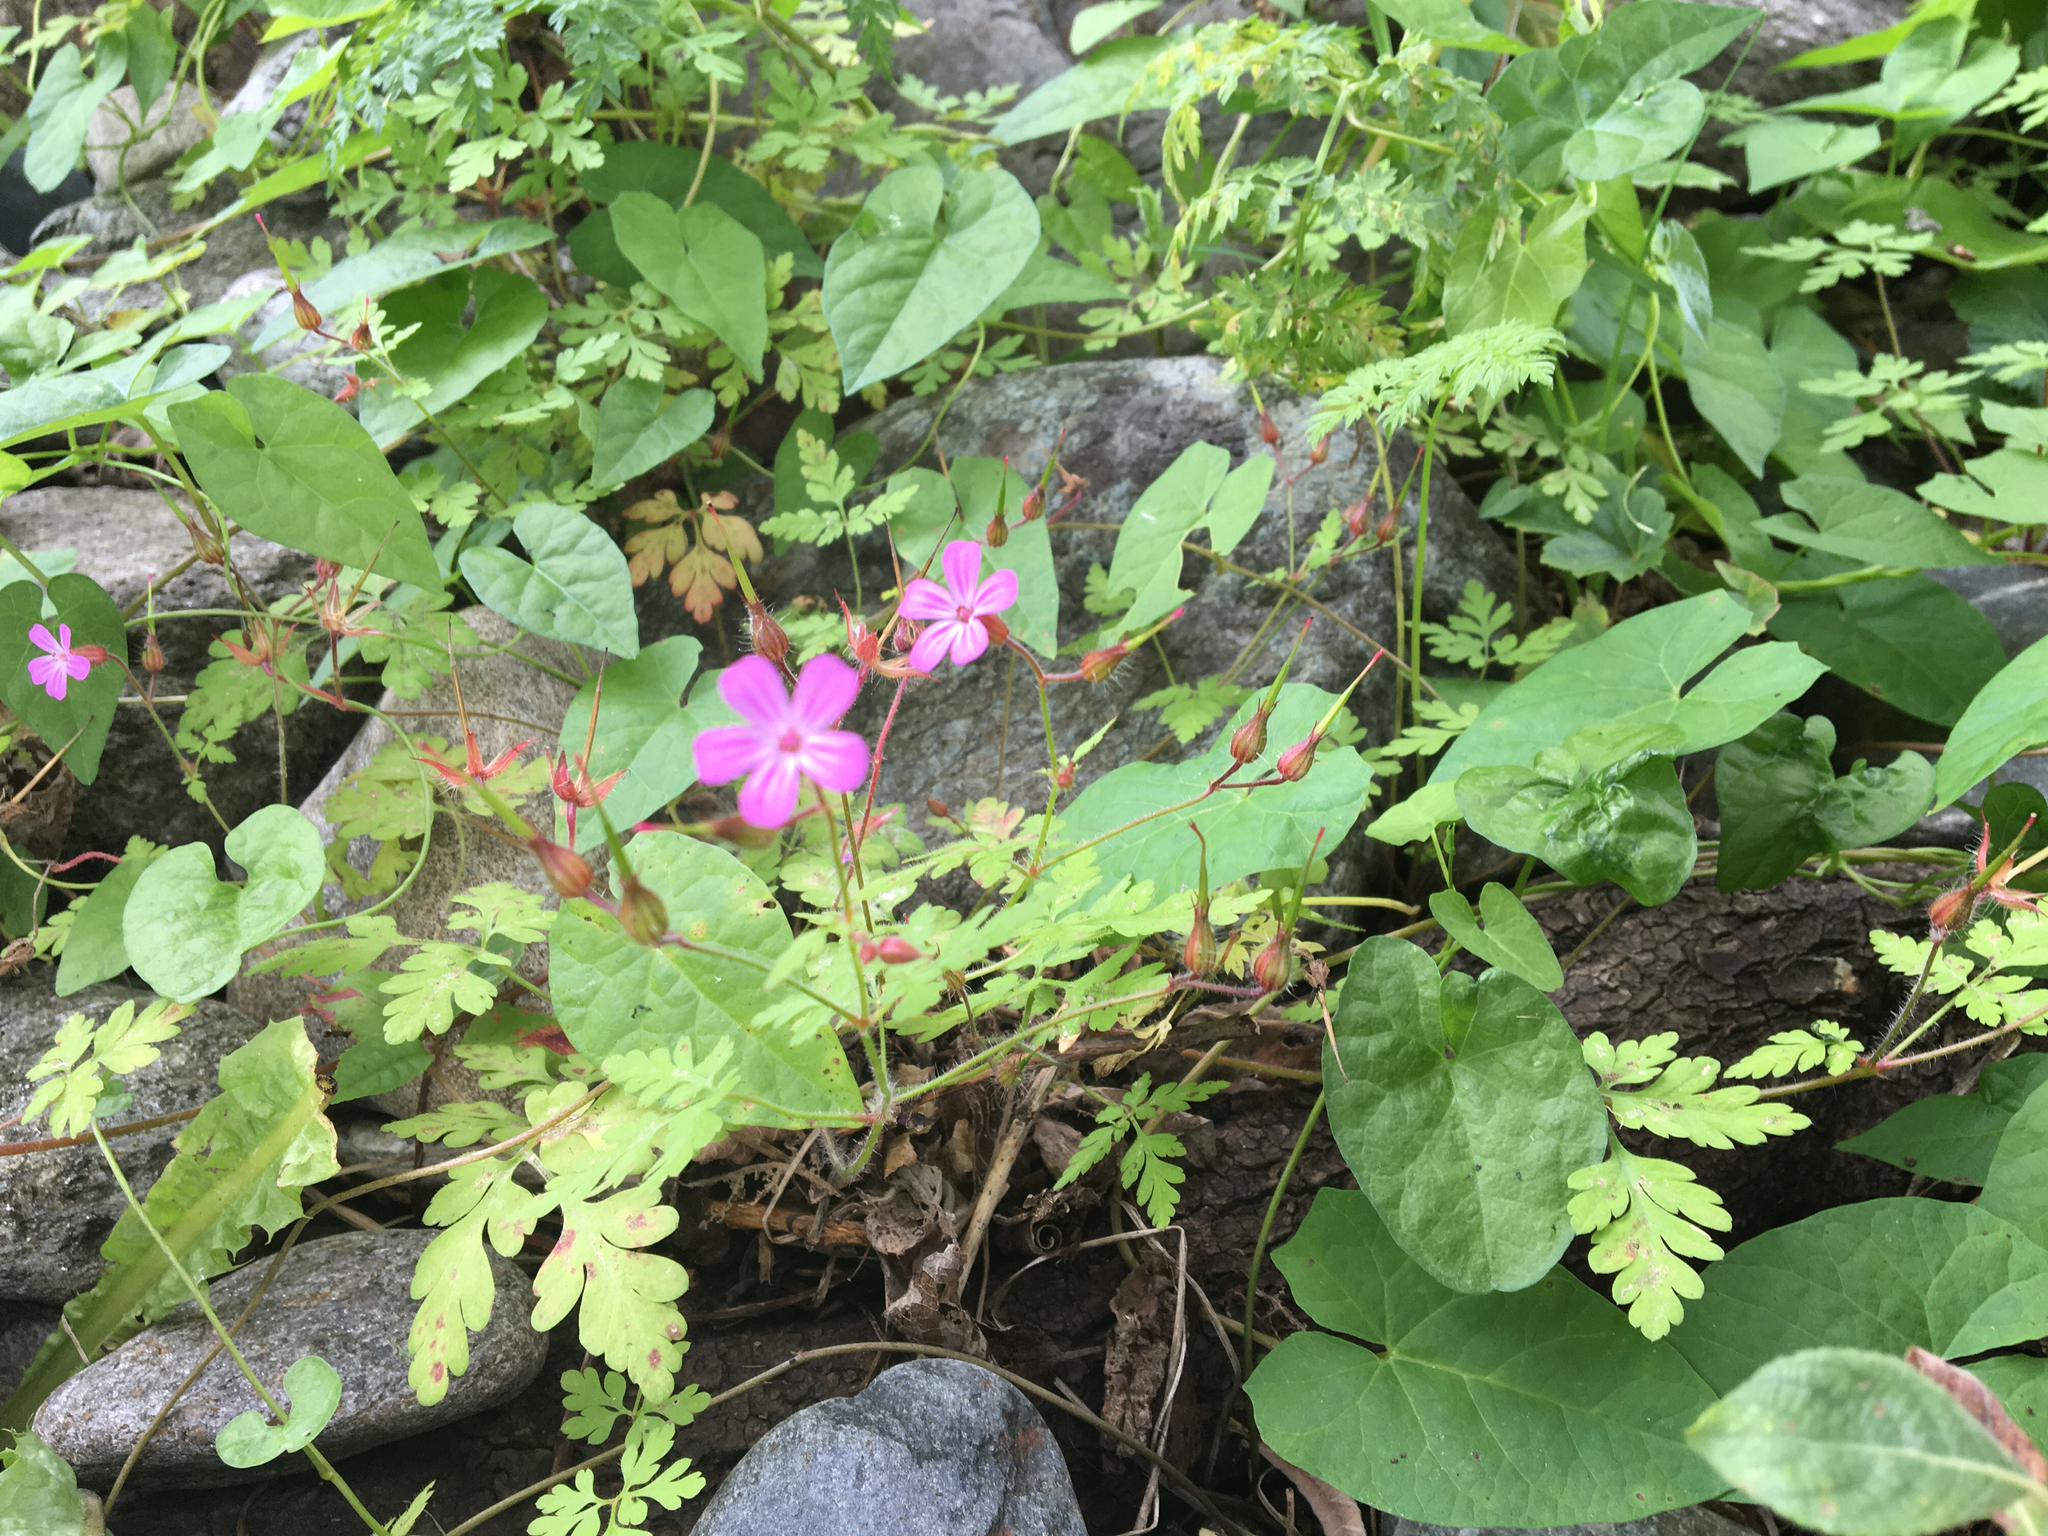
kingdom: Plantae
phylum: Tracheophyta
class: Magnoliopsida
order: Geraniales
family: Geraniaceae
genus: Geranium
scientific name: Geranium robertianum
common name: Herb-robert
